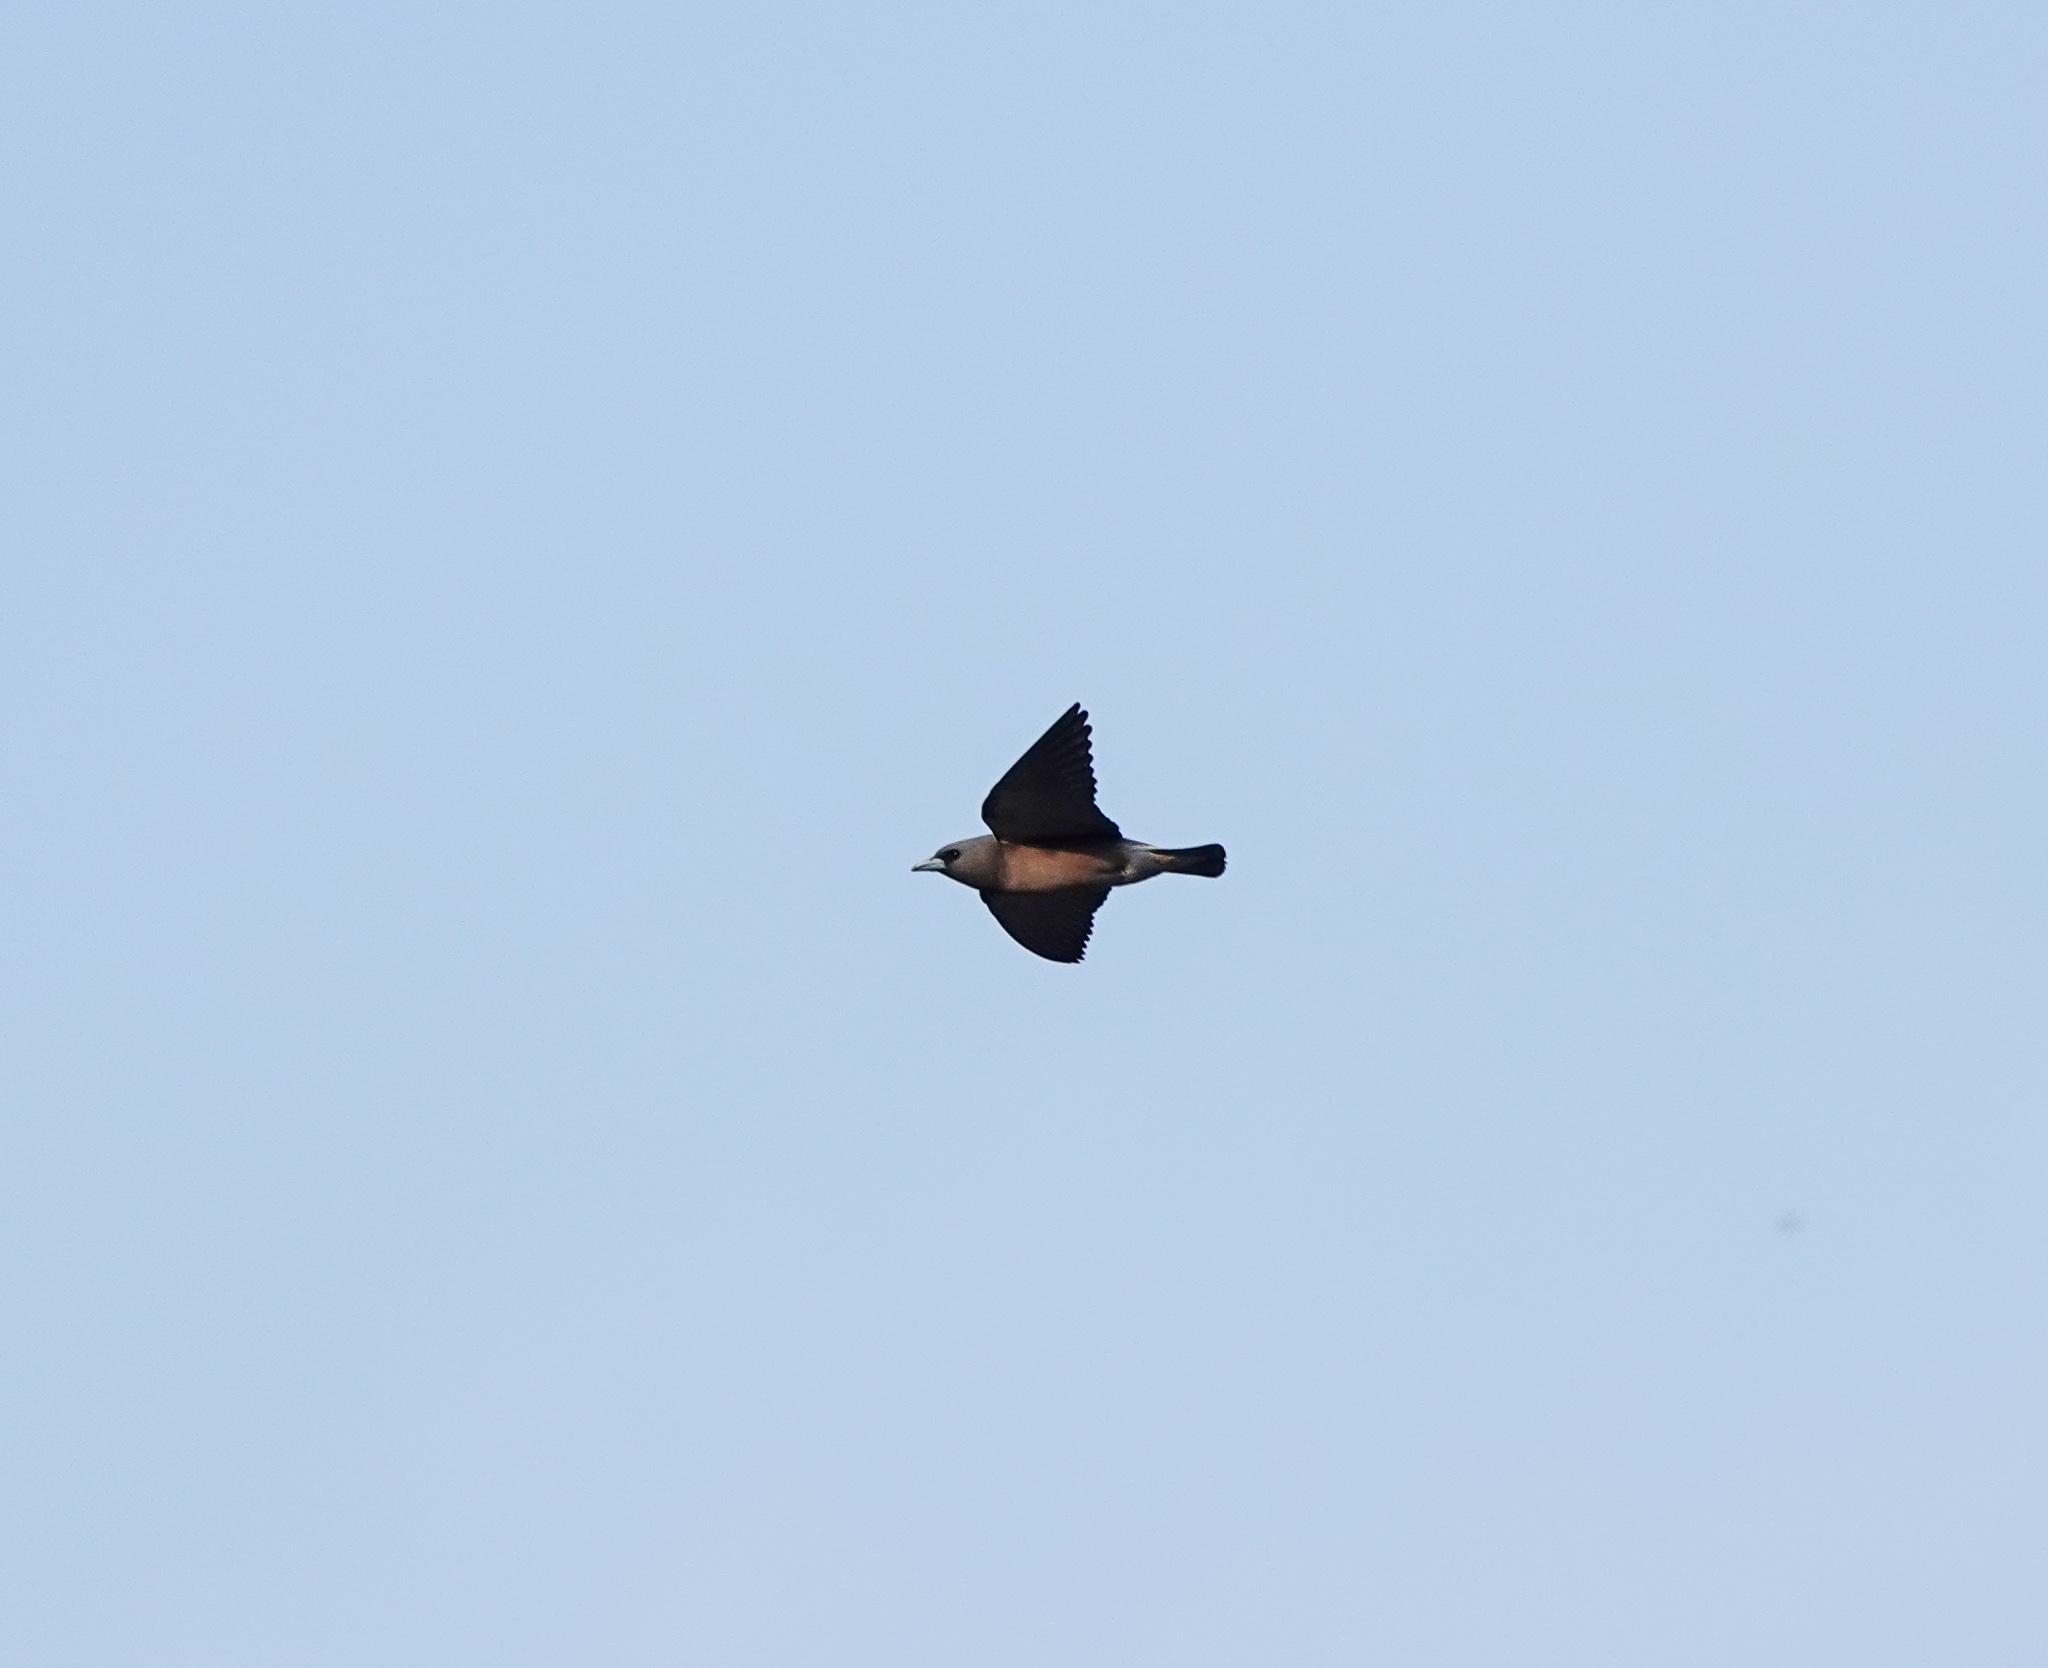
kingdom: Animalia
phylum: Chordata
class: Aves
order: Passeriformes
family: Artamidae
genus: Artamus
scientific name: Artamus fuscus
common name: Ashy woodswallow
